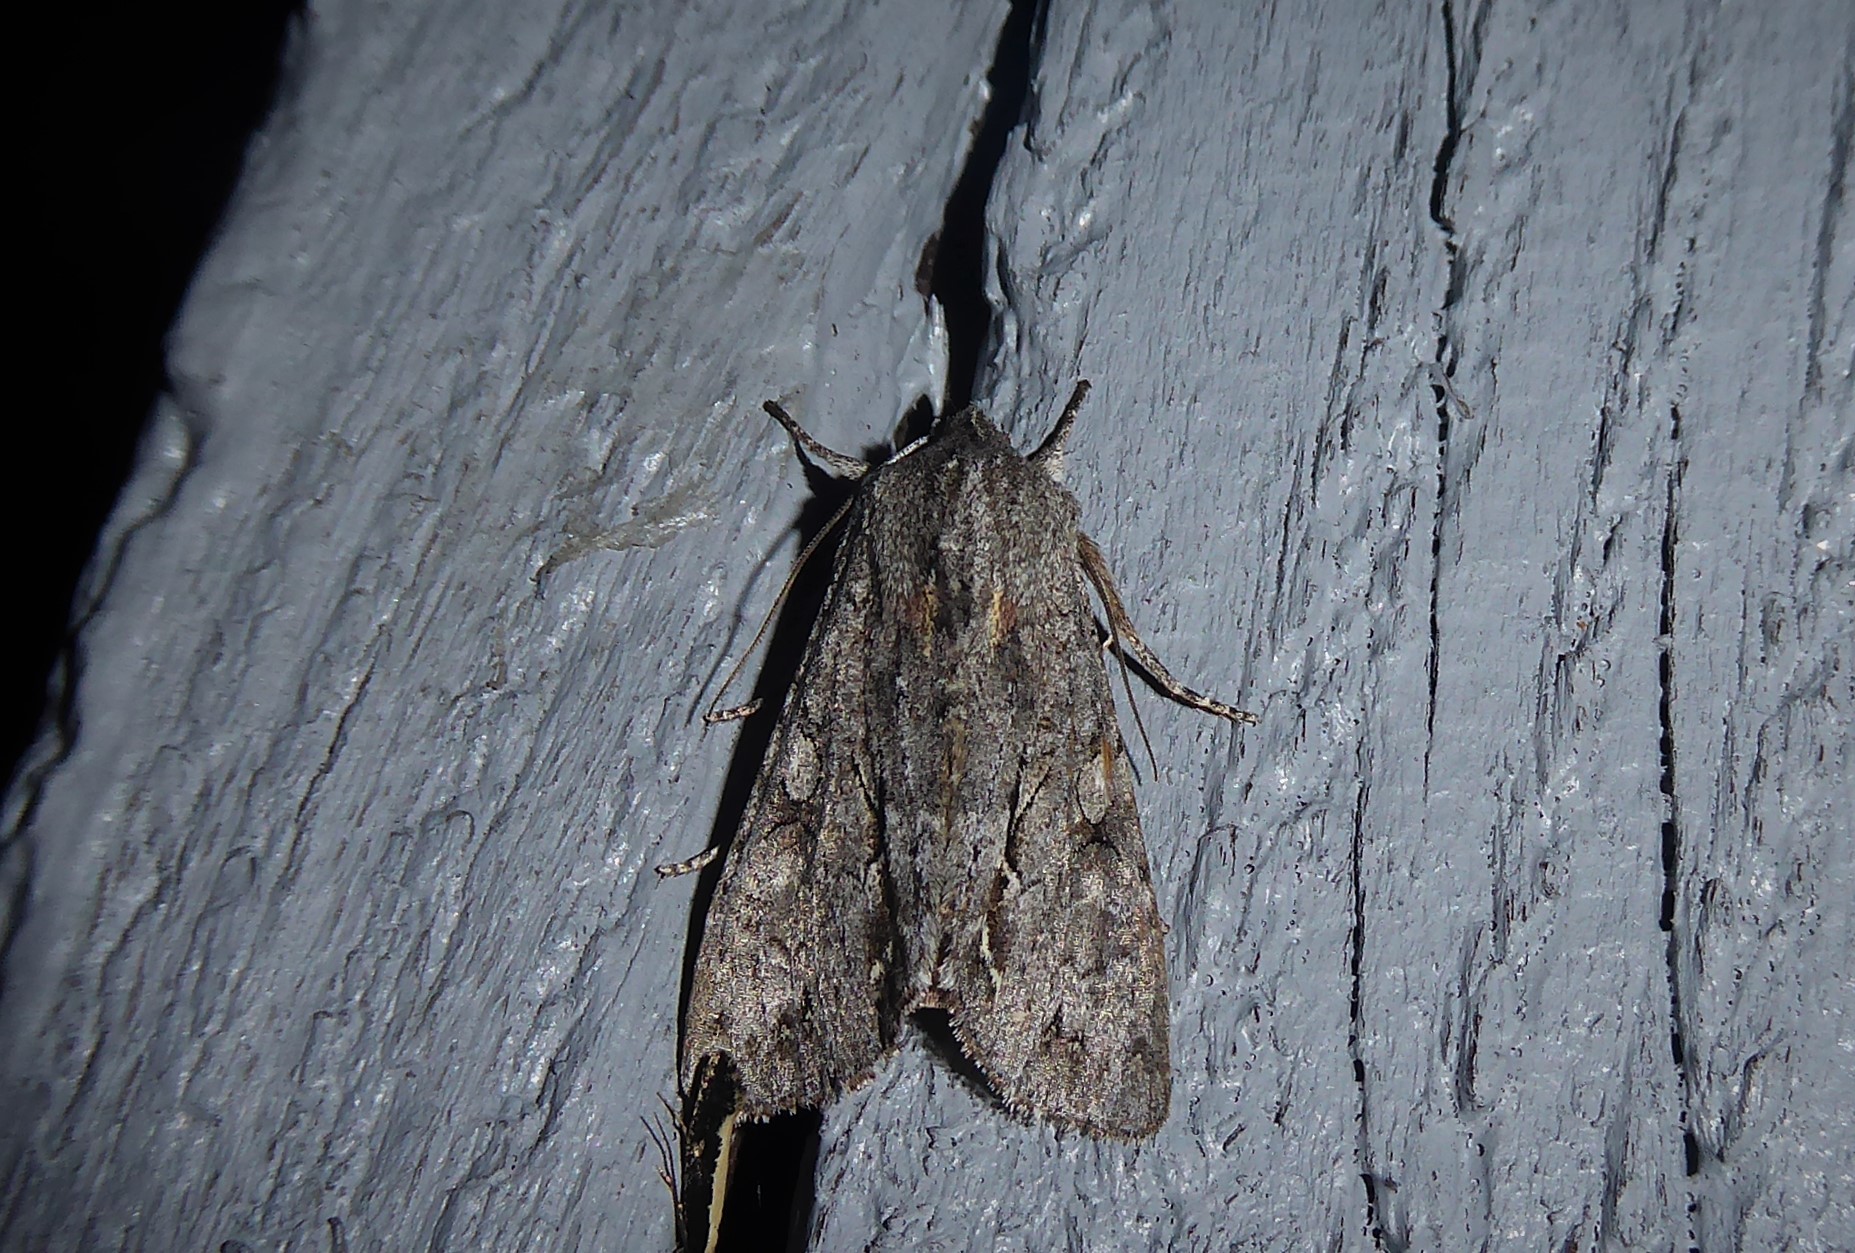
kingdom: Animalia
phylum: Arthropoda
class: Insecta
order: Lepidoptera
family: Noctuidae
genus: Ichneutica
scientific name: Ichneutica
